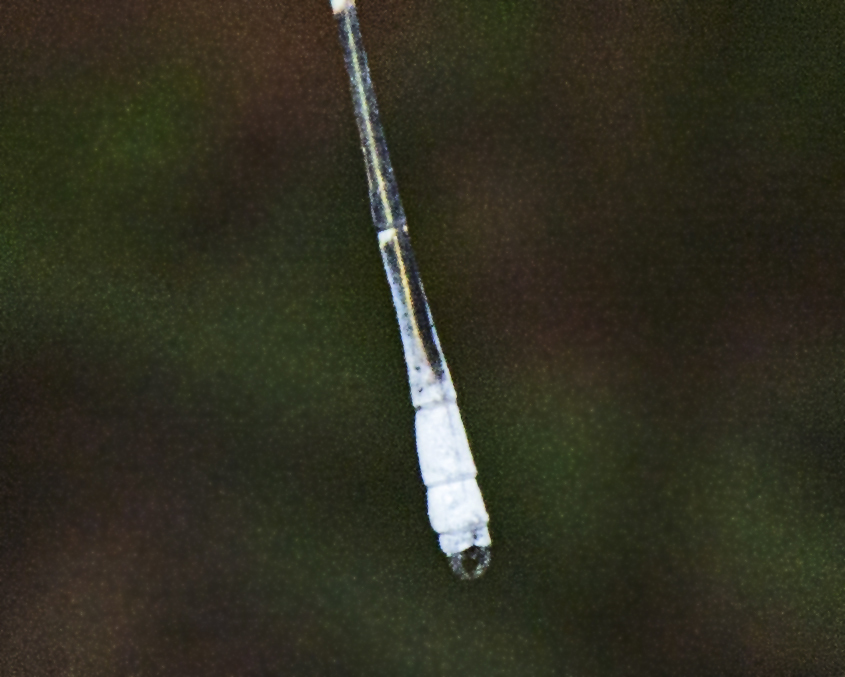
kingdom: Animalia
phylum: Arthropoda
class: Insecta
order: Odonata
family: Isostictidae
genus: Labidiosticta
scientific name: Labidiosticta vallisi
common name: Large wiretail
